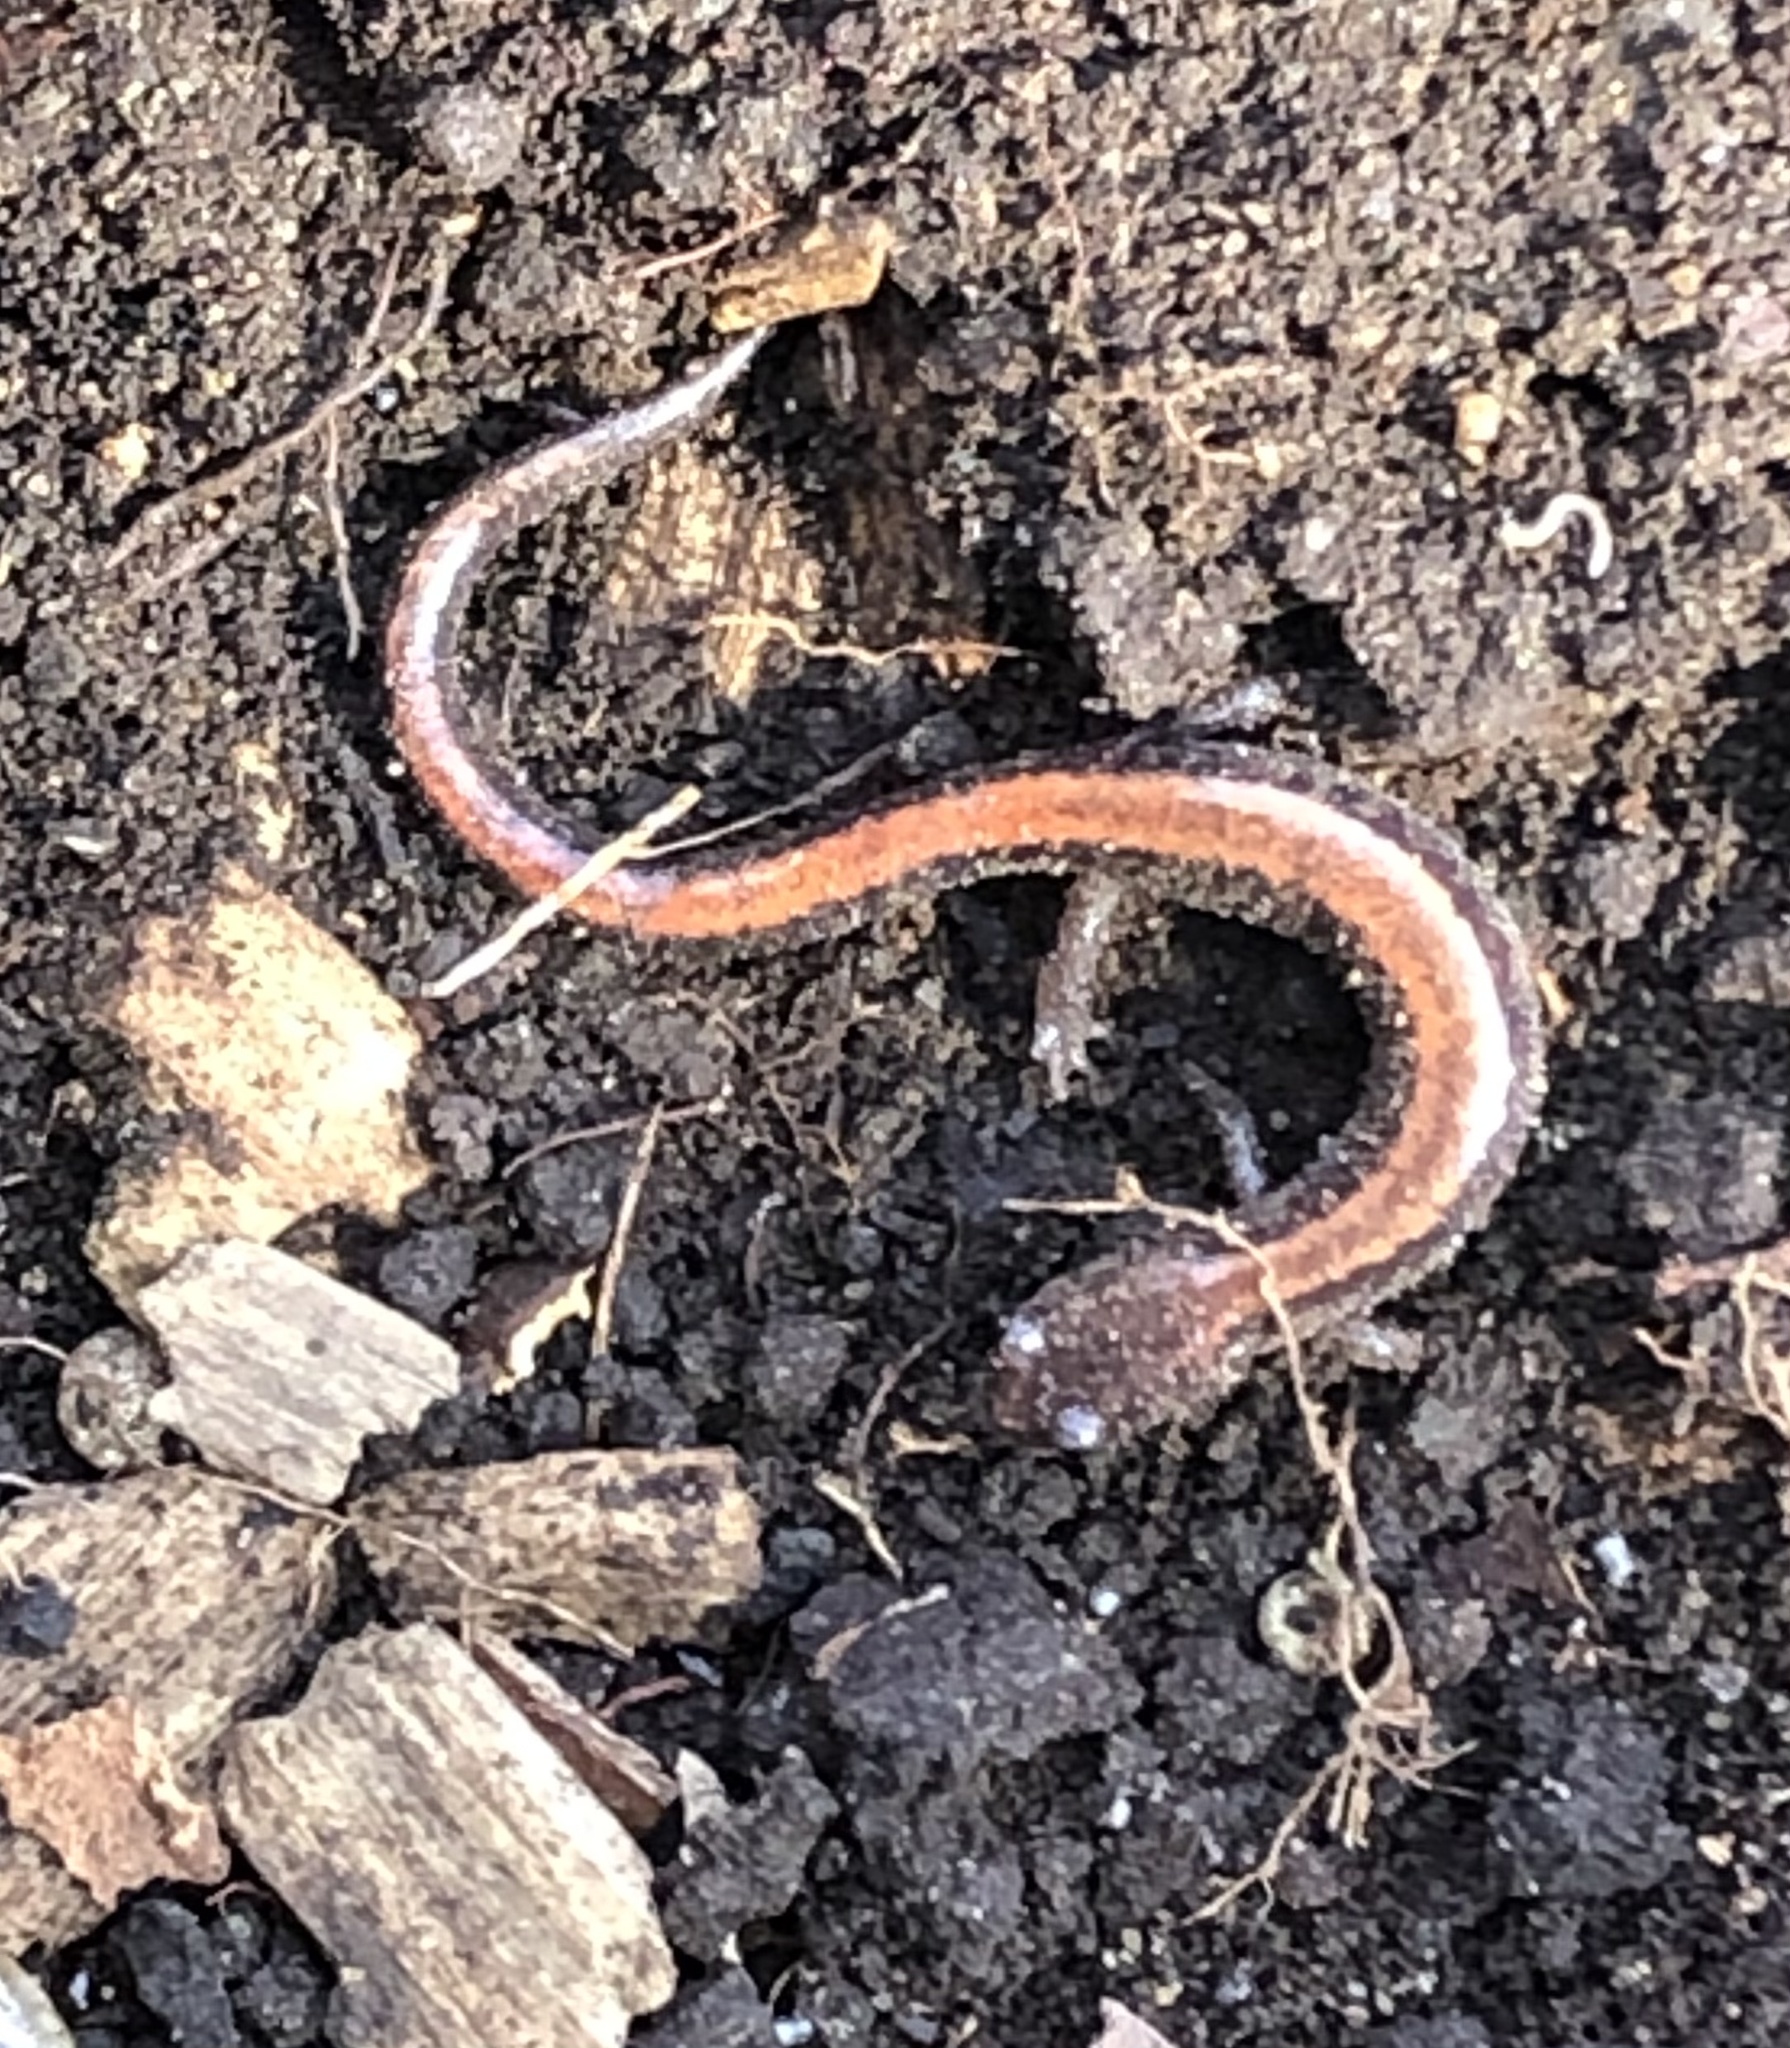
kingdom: Animalia
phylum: Chordata
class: Amphibia
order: Caudata
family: Plethodontidae
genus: Plethodon
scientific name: Plethodon cinereus
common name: Redback salamander
